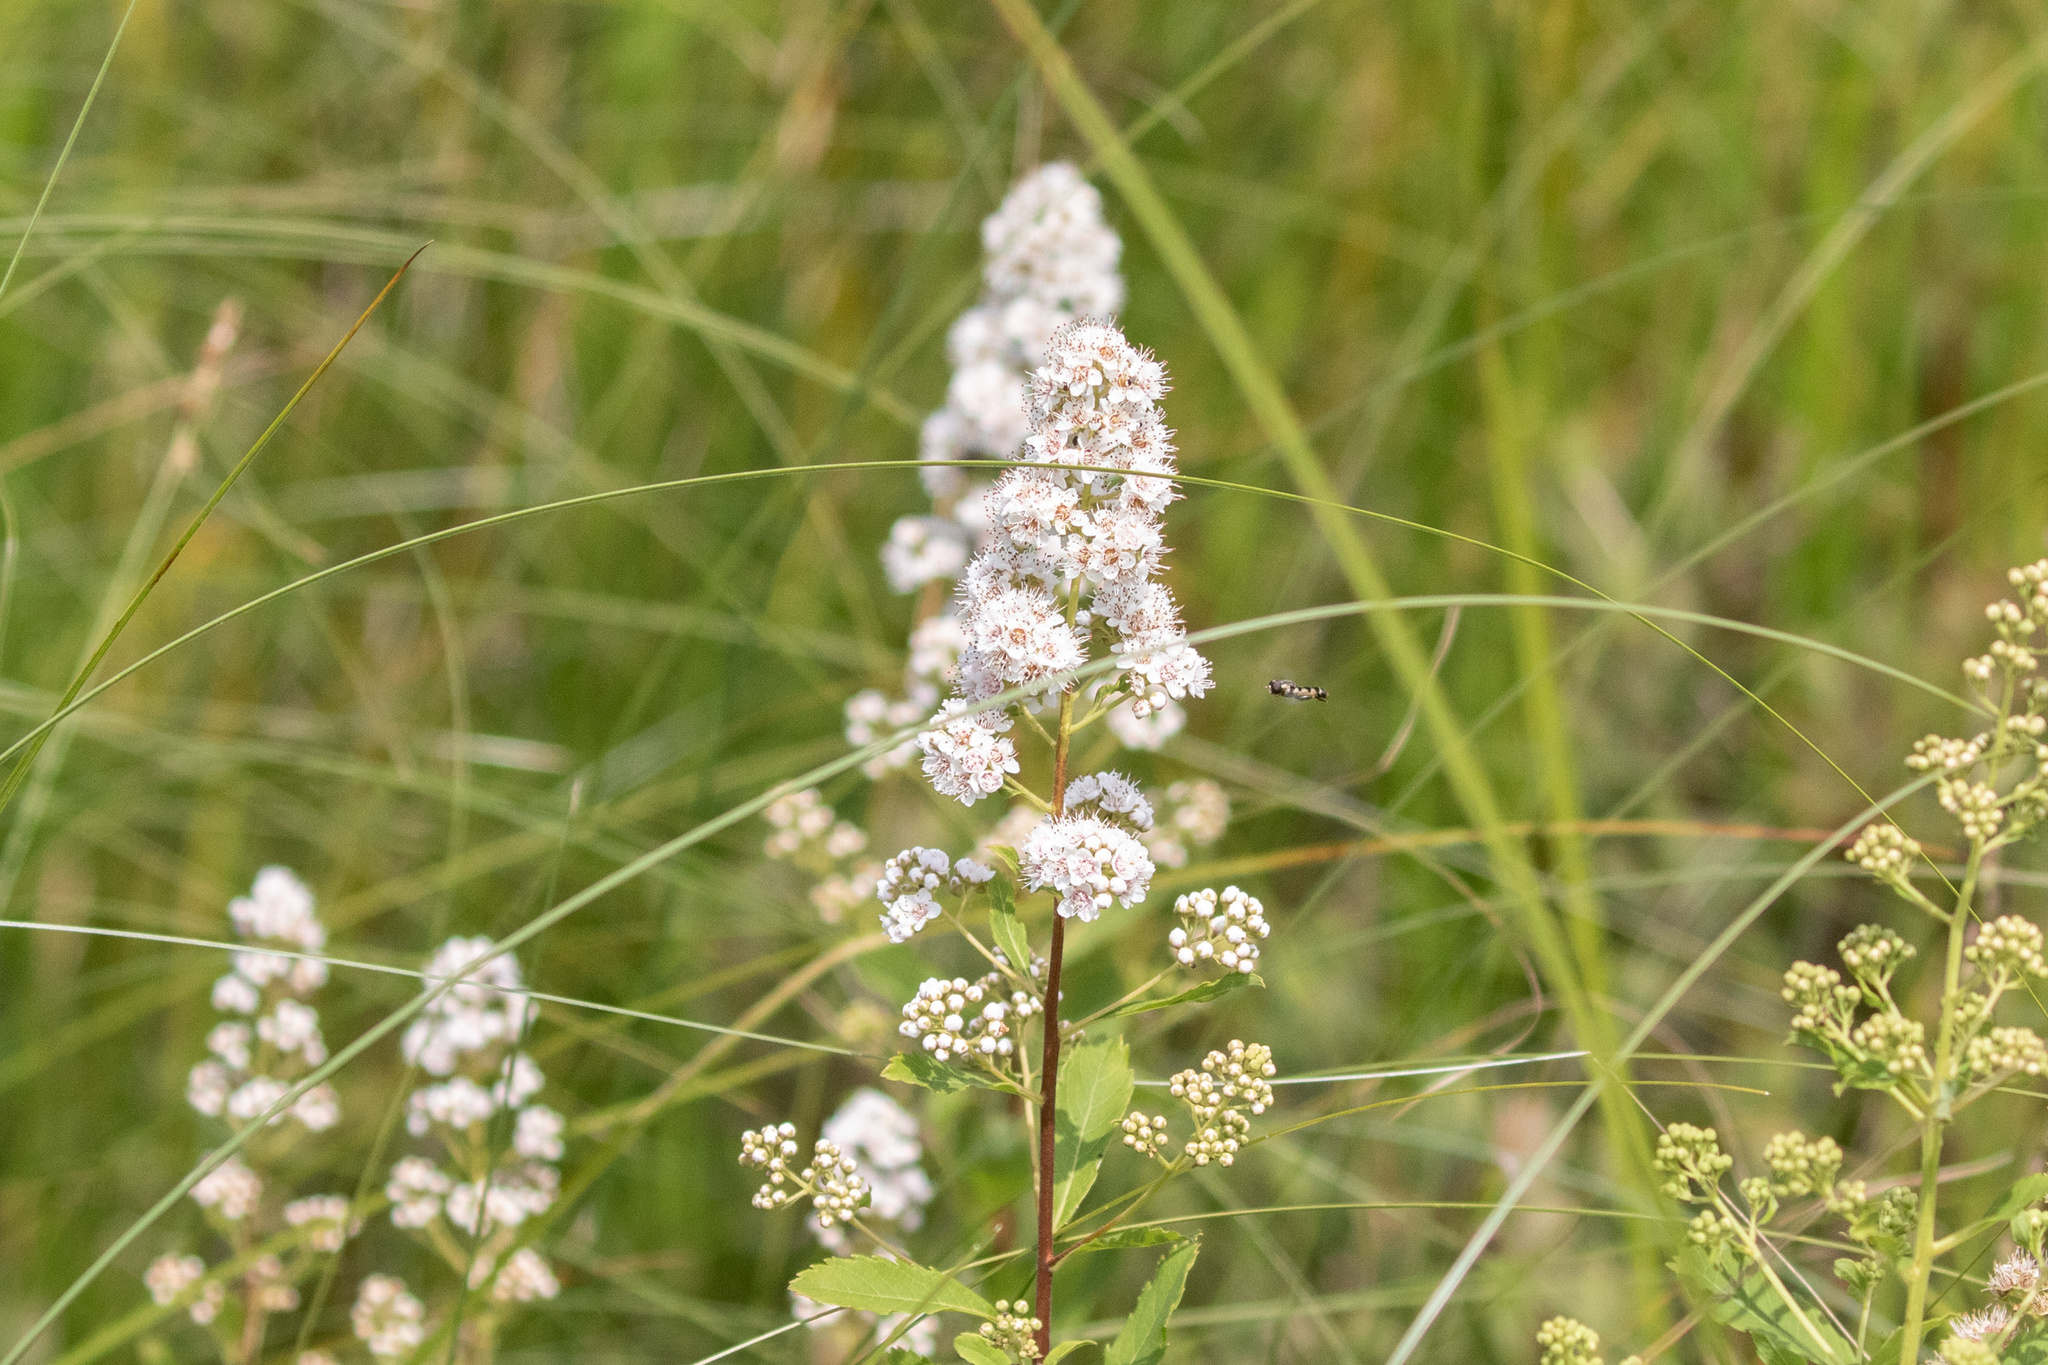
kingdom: Plantae
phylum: Tracheophyta
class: Magnoliopsida
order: Rosales
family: Rosaceae
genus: Spiraea
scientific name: Spiraea alba
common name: Pale bridewort
